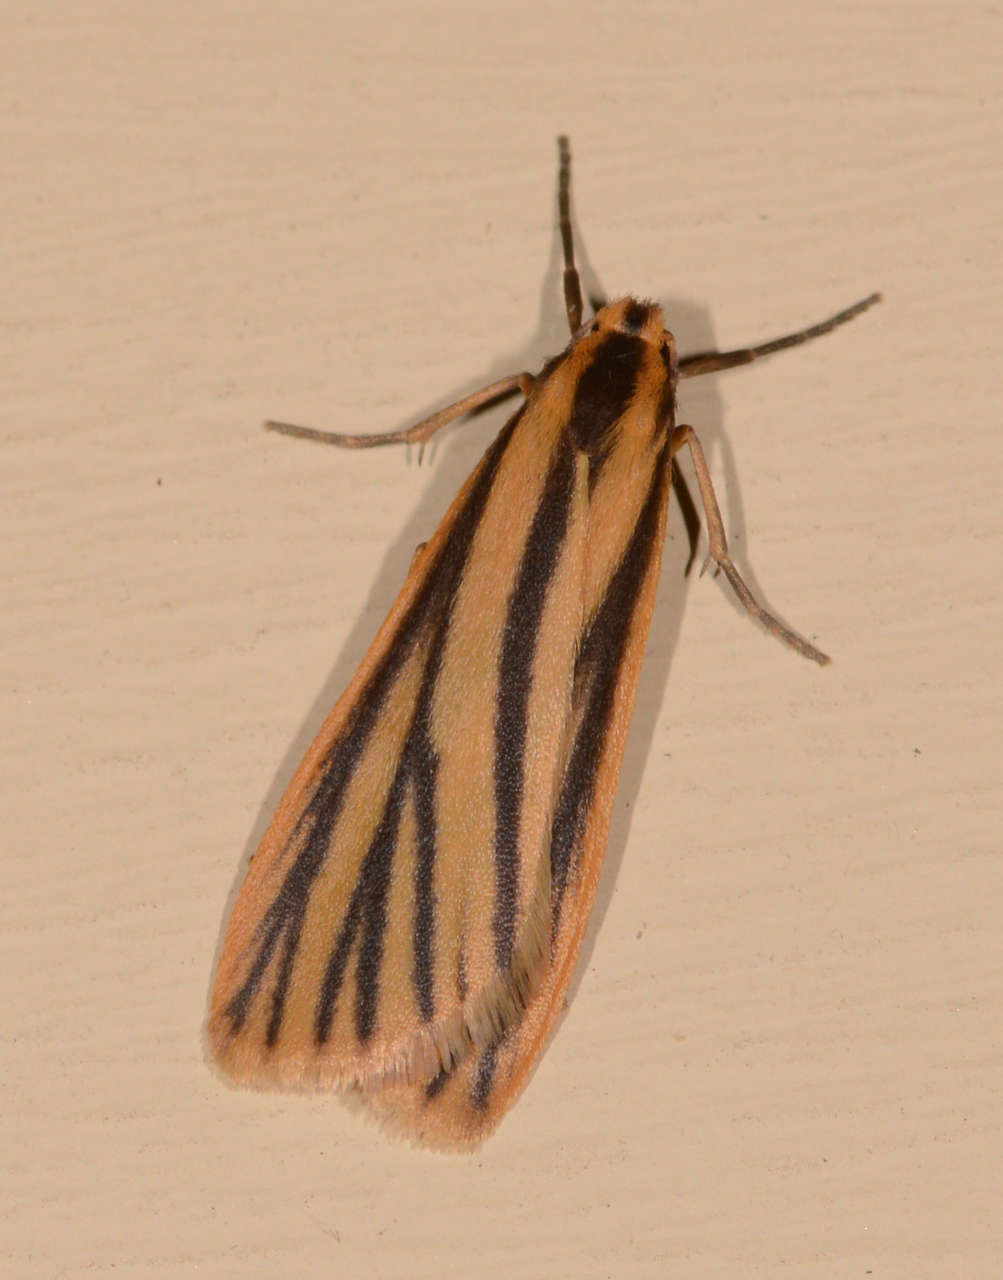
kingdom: Animalia
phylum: Arthropoda
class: Insecta
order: Lepidoptera
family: Erebidae
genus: Phaeophlebosia
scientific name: Phaeophlebosia furcifera
